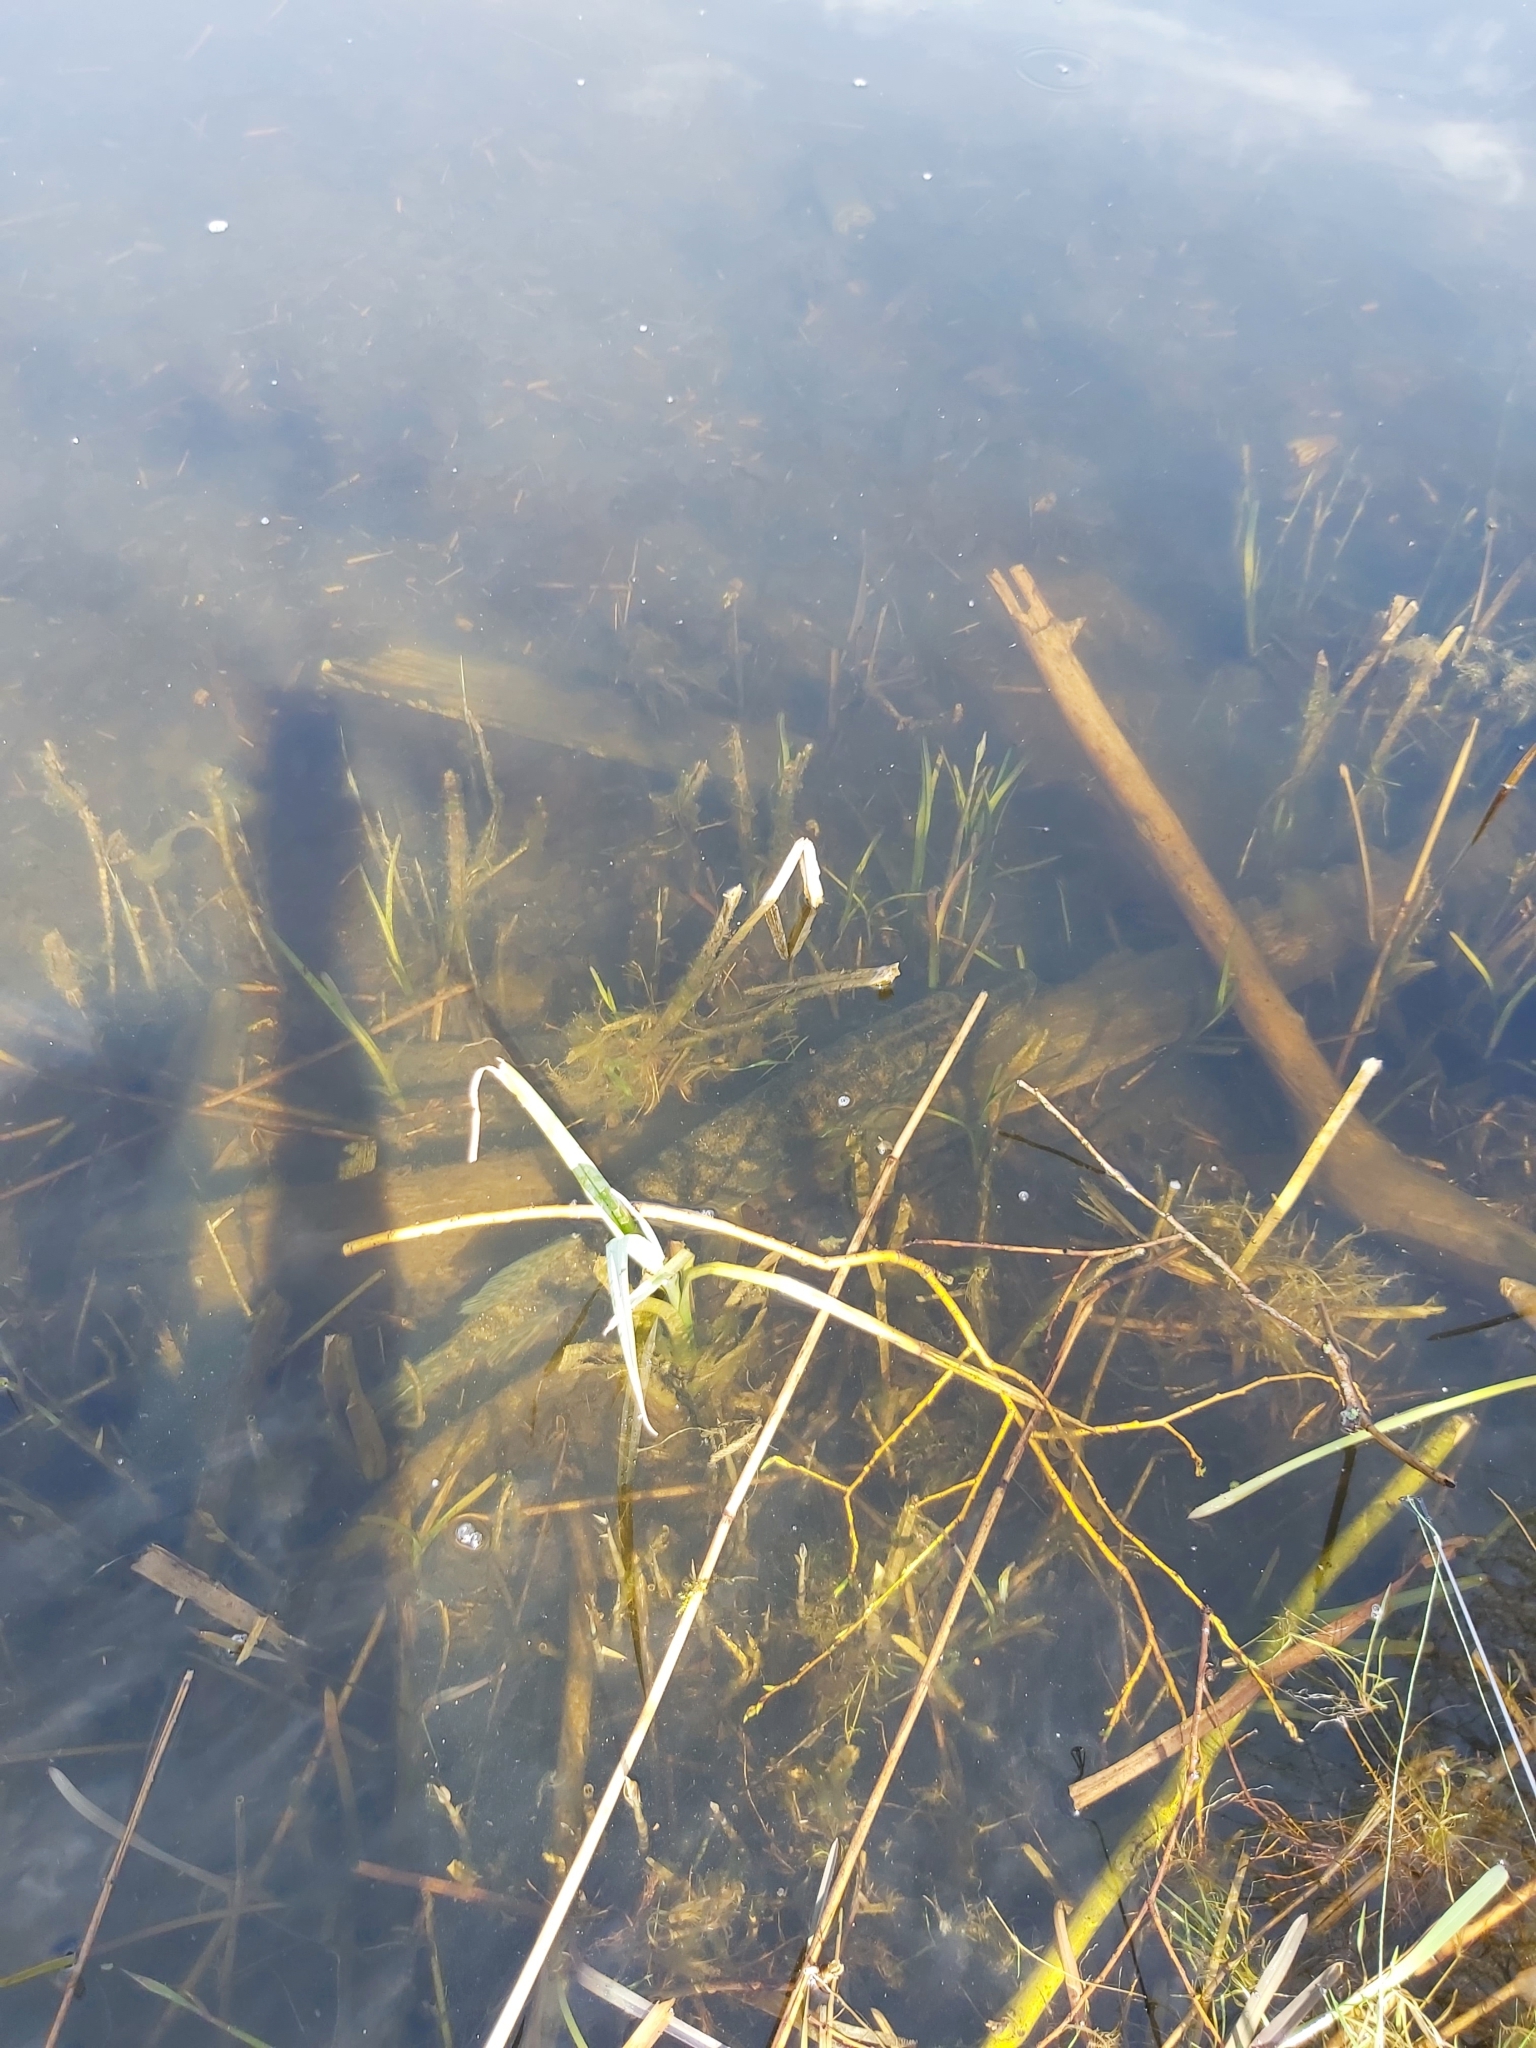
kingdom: Animalia
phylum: Chordata
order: Esociformes
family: Esocidae
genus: Esox
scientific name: Esox lucius
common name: Northern pike
